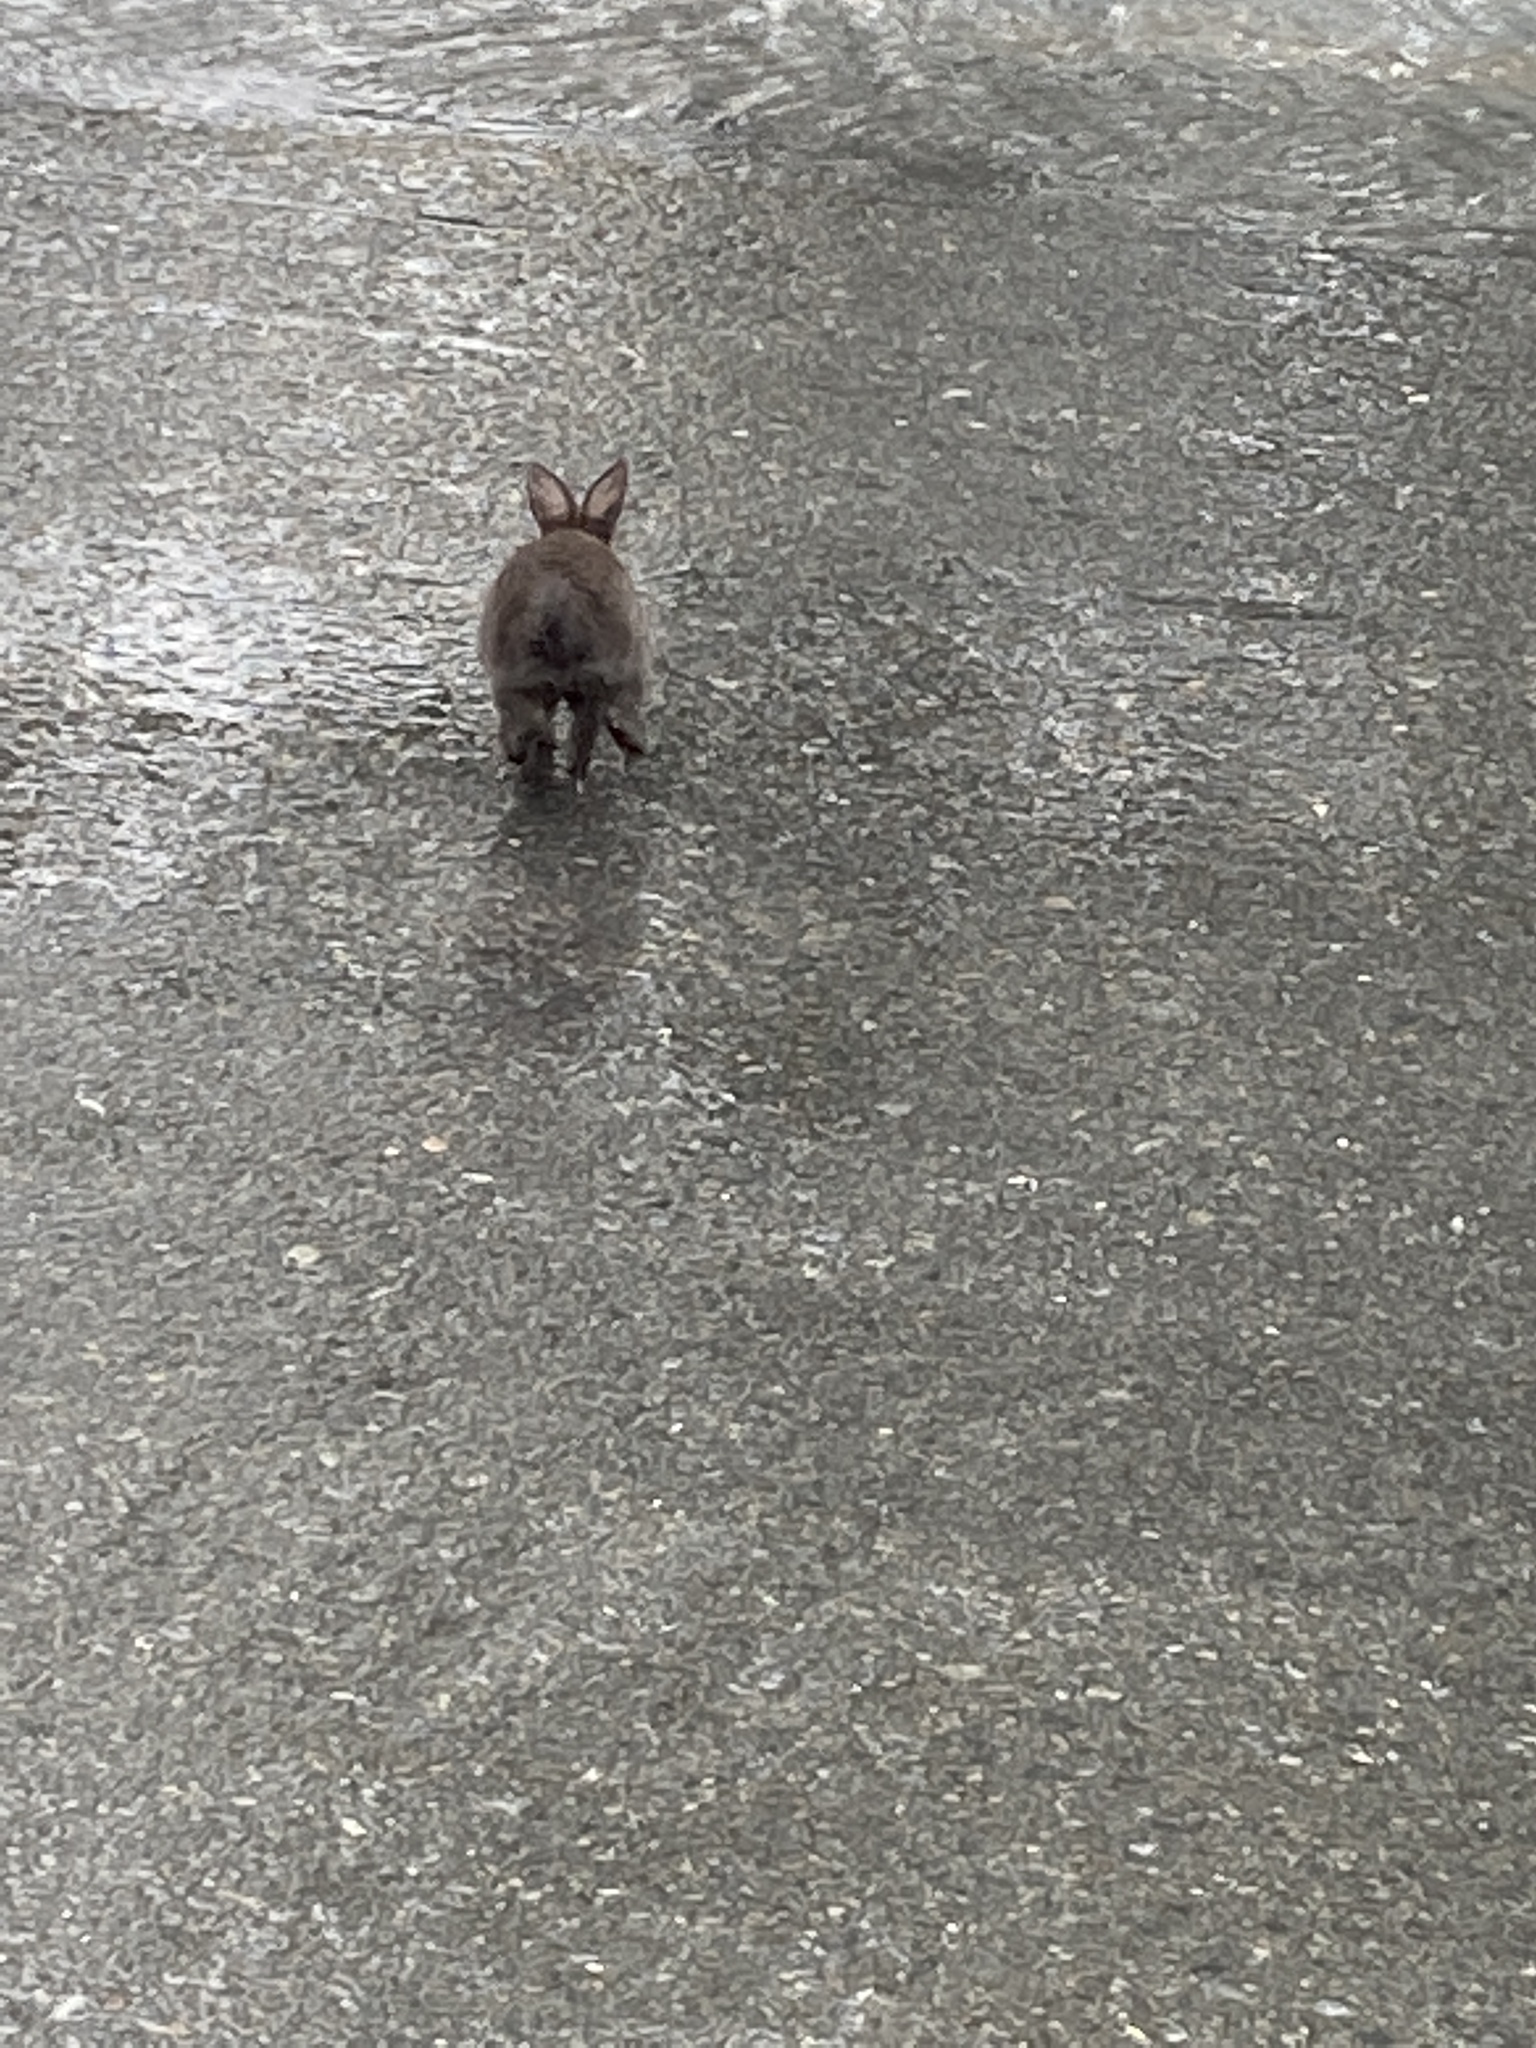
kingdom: Animalia
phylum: Chordata
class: Mammalia
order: Lagomorpha
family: Leporidae
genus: Lepus
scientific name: Lepus americanus
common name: Snowshoe hare
